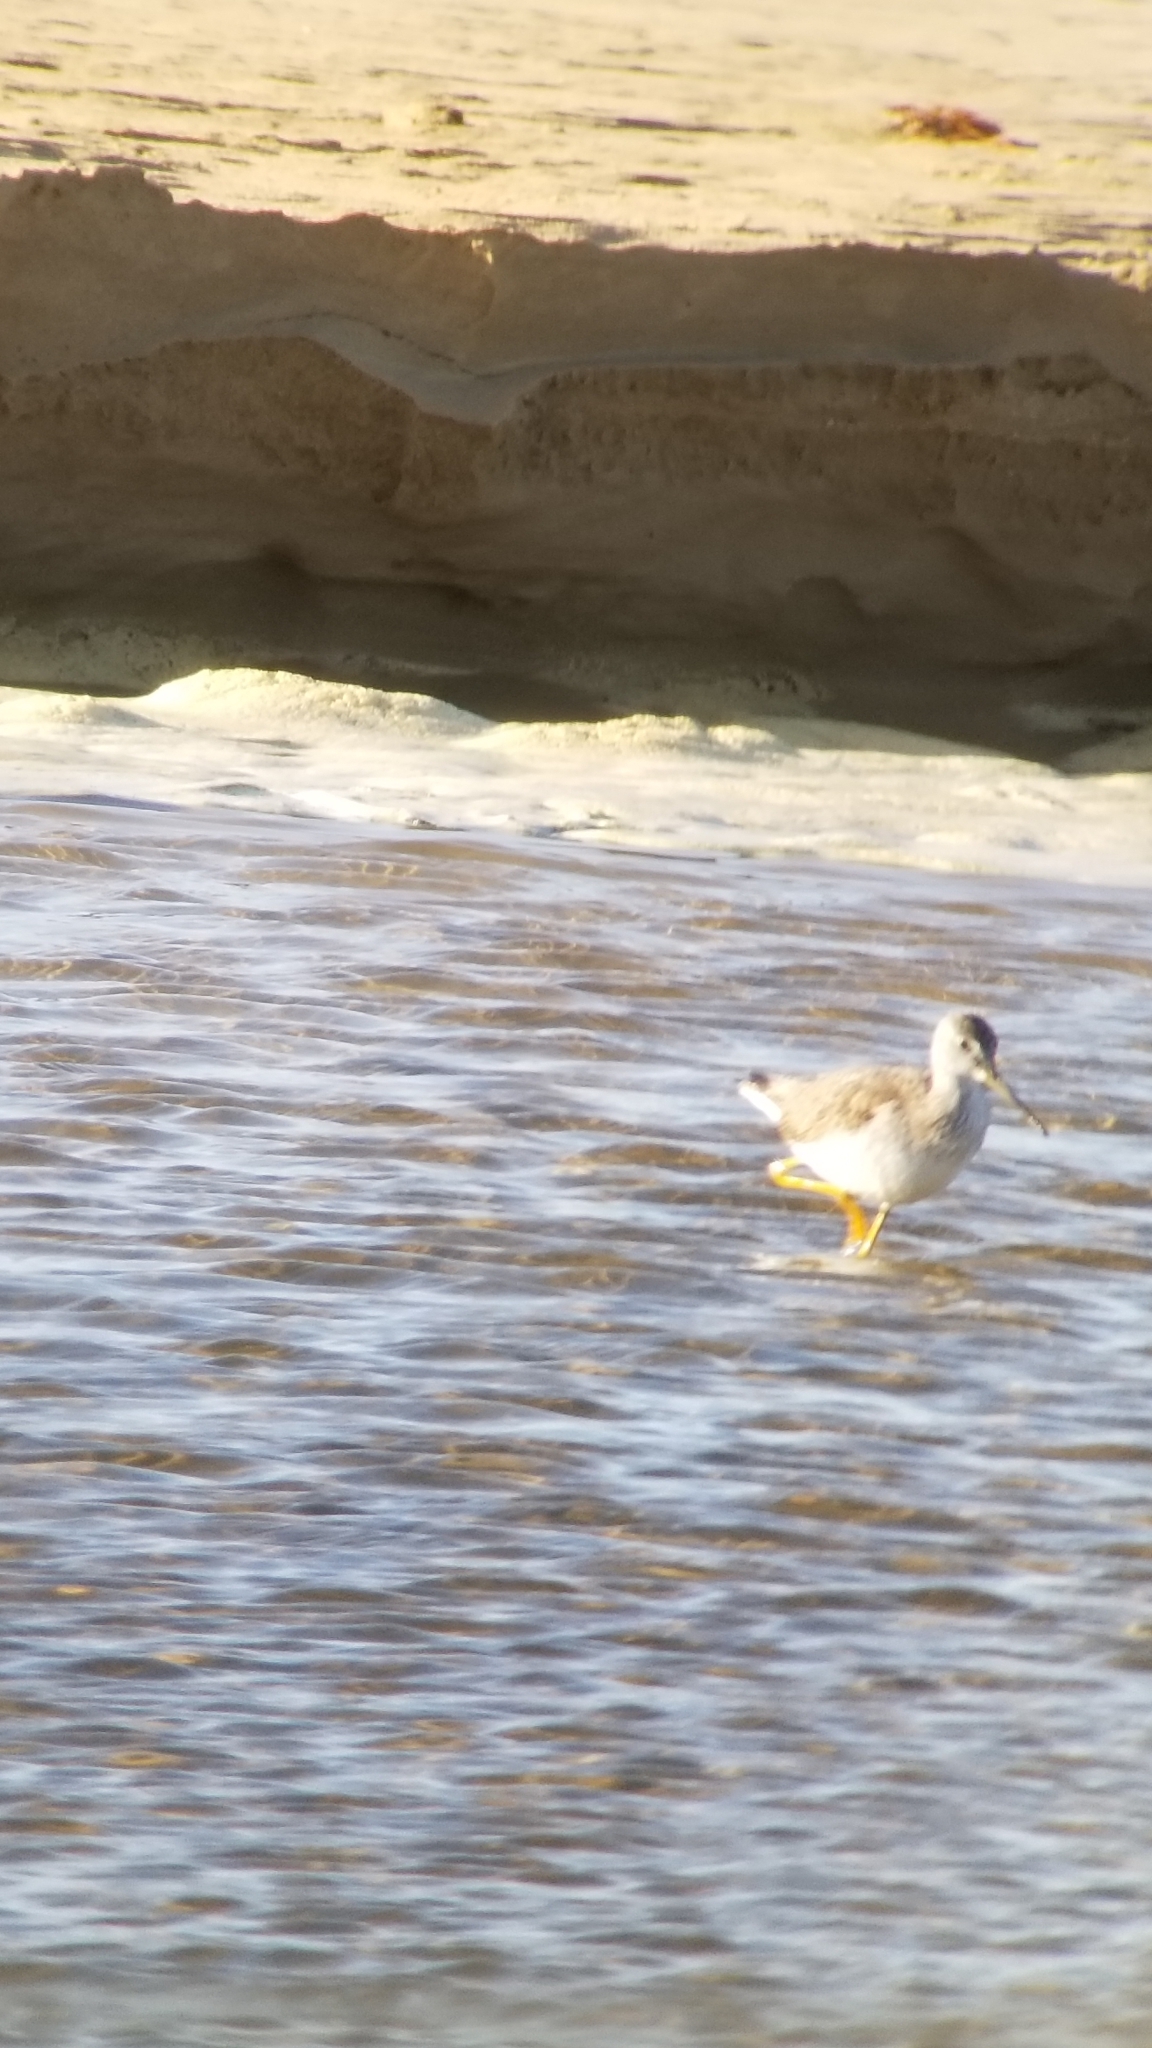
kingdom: Animalia
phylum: Chordata
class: Aves
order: Charadriiformes
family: Scolopacidae
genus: Tringa
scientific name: Tringa melanoleuca
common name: Greater yellowlegs
